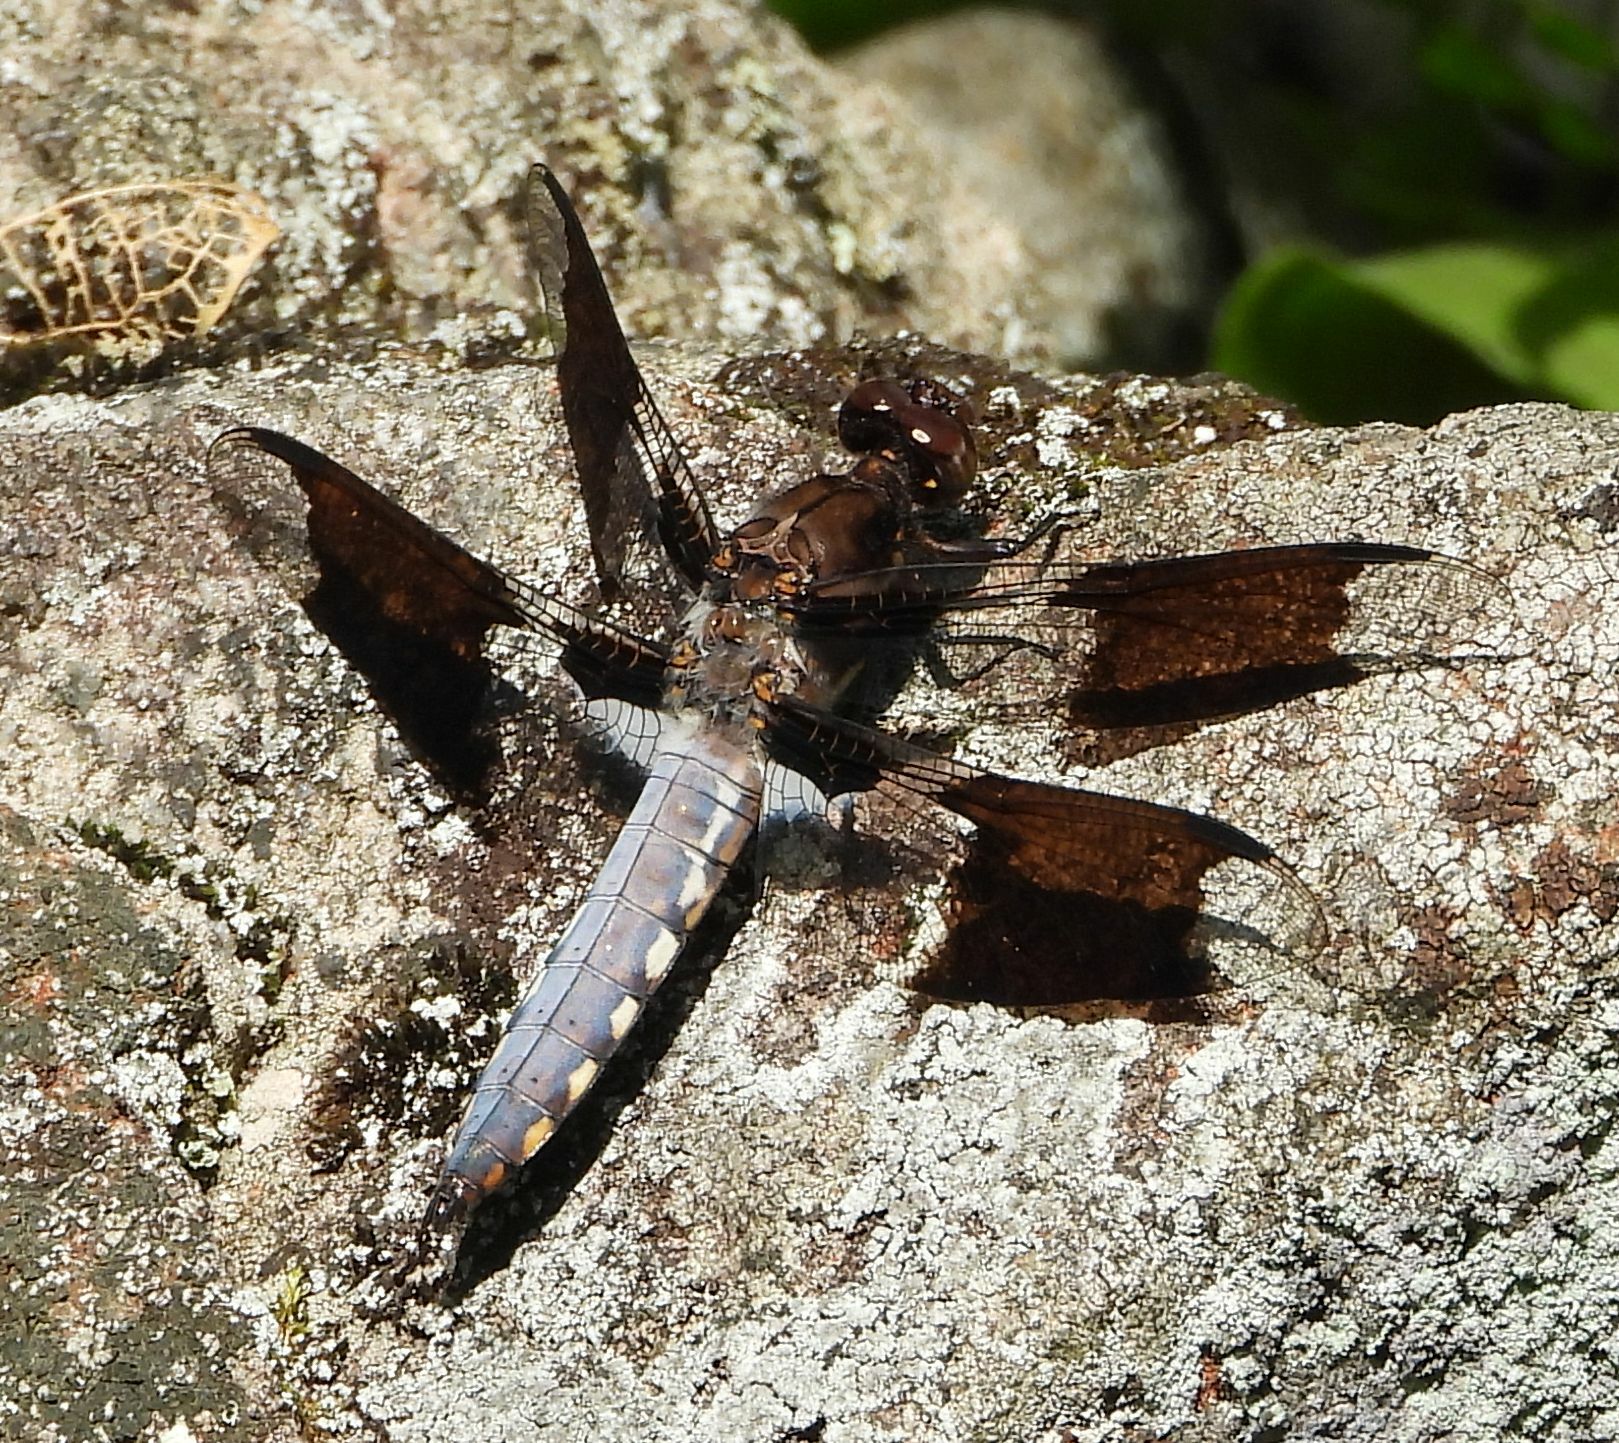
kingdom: Animalia
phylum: Arthropoda
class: Insecta
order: Odonata
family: Libellulidae
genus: Plathemis
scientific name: Plathemis lydia
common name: Common whitetail
